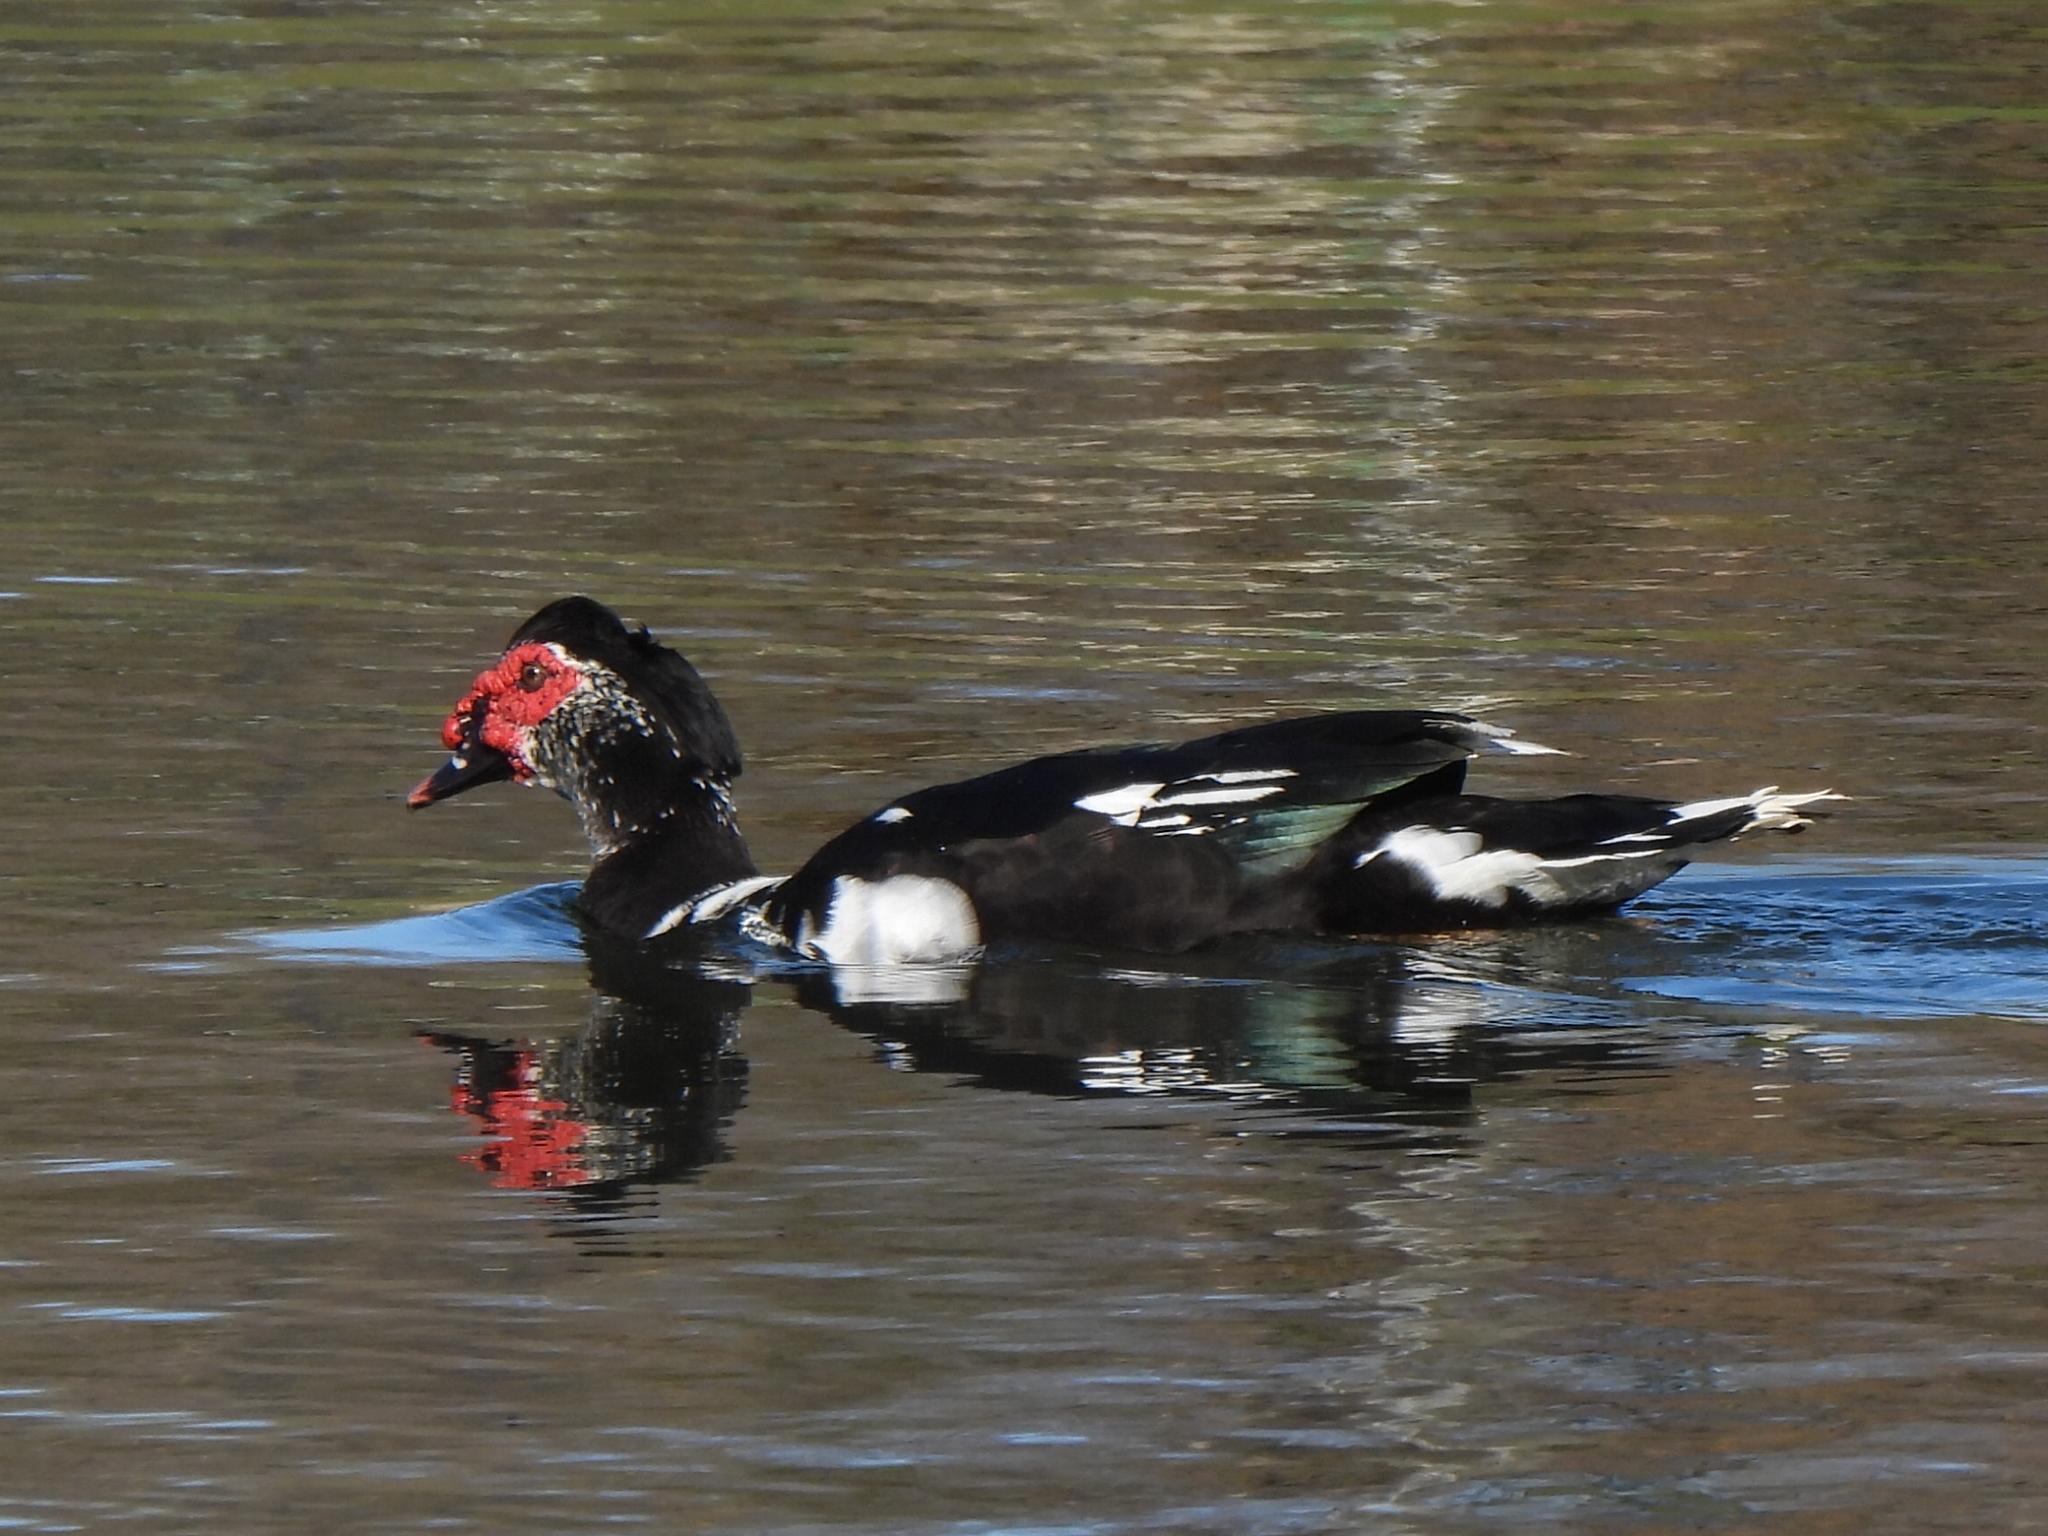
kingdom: Animalia
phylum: Chordata
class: Aves
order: Anseriformes
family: Anatidae
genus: Cairina
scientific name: Cairina moschata
